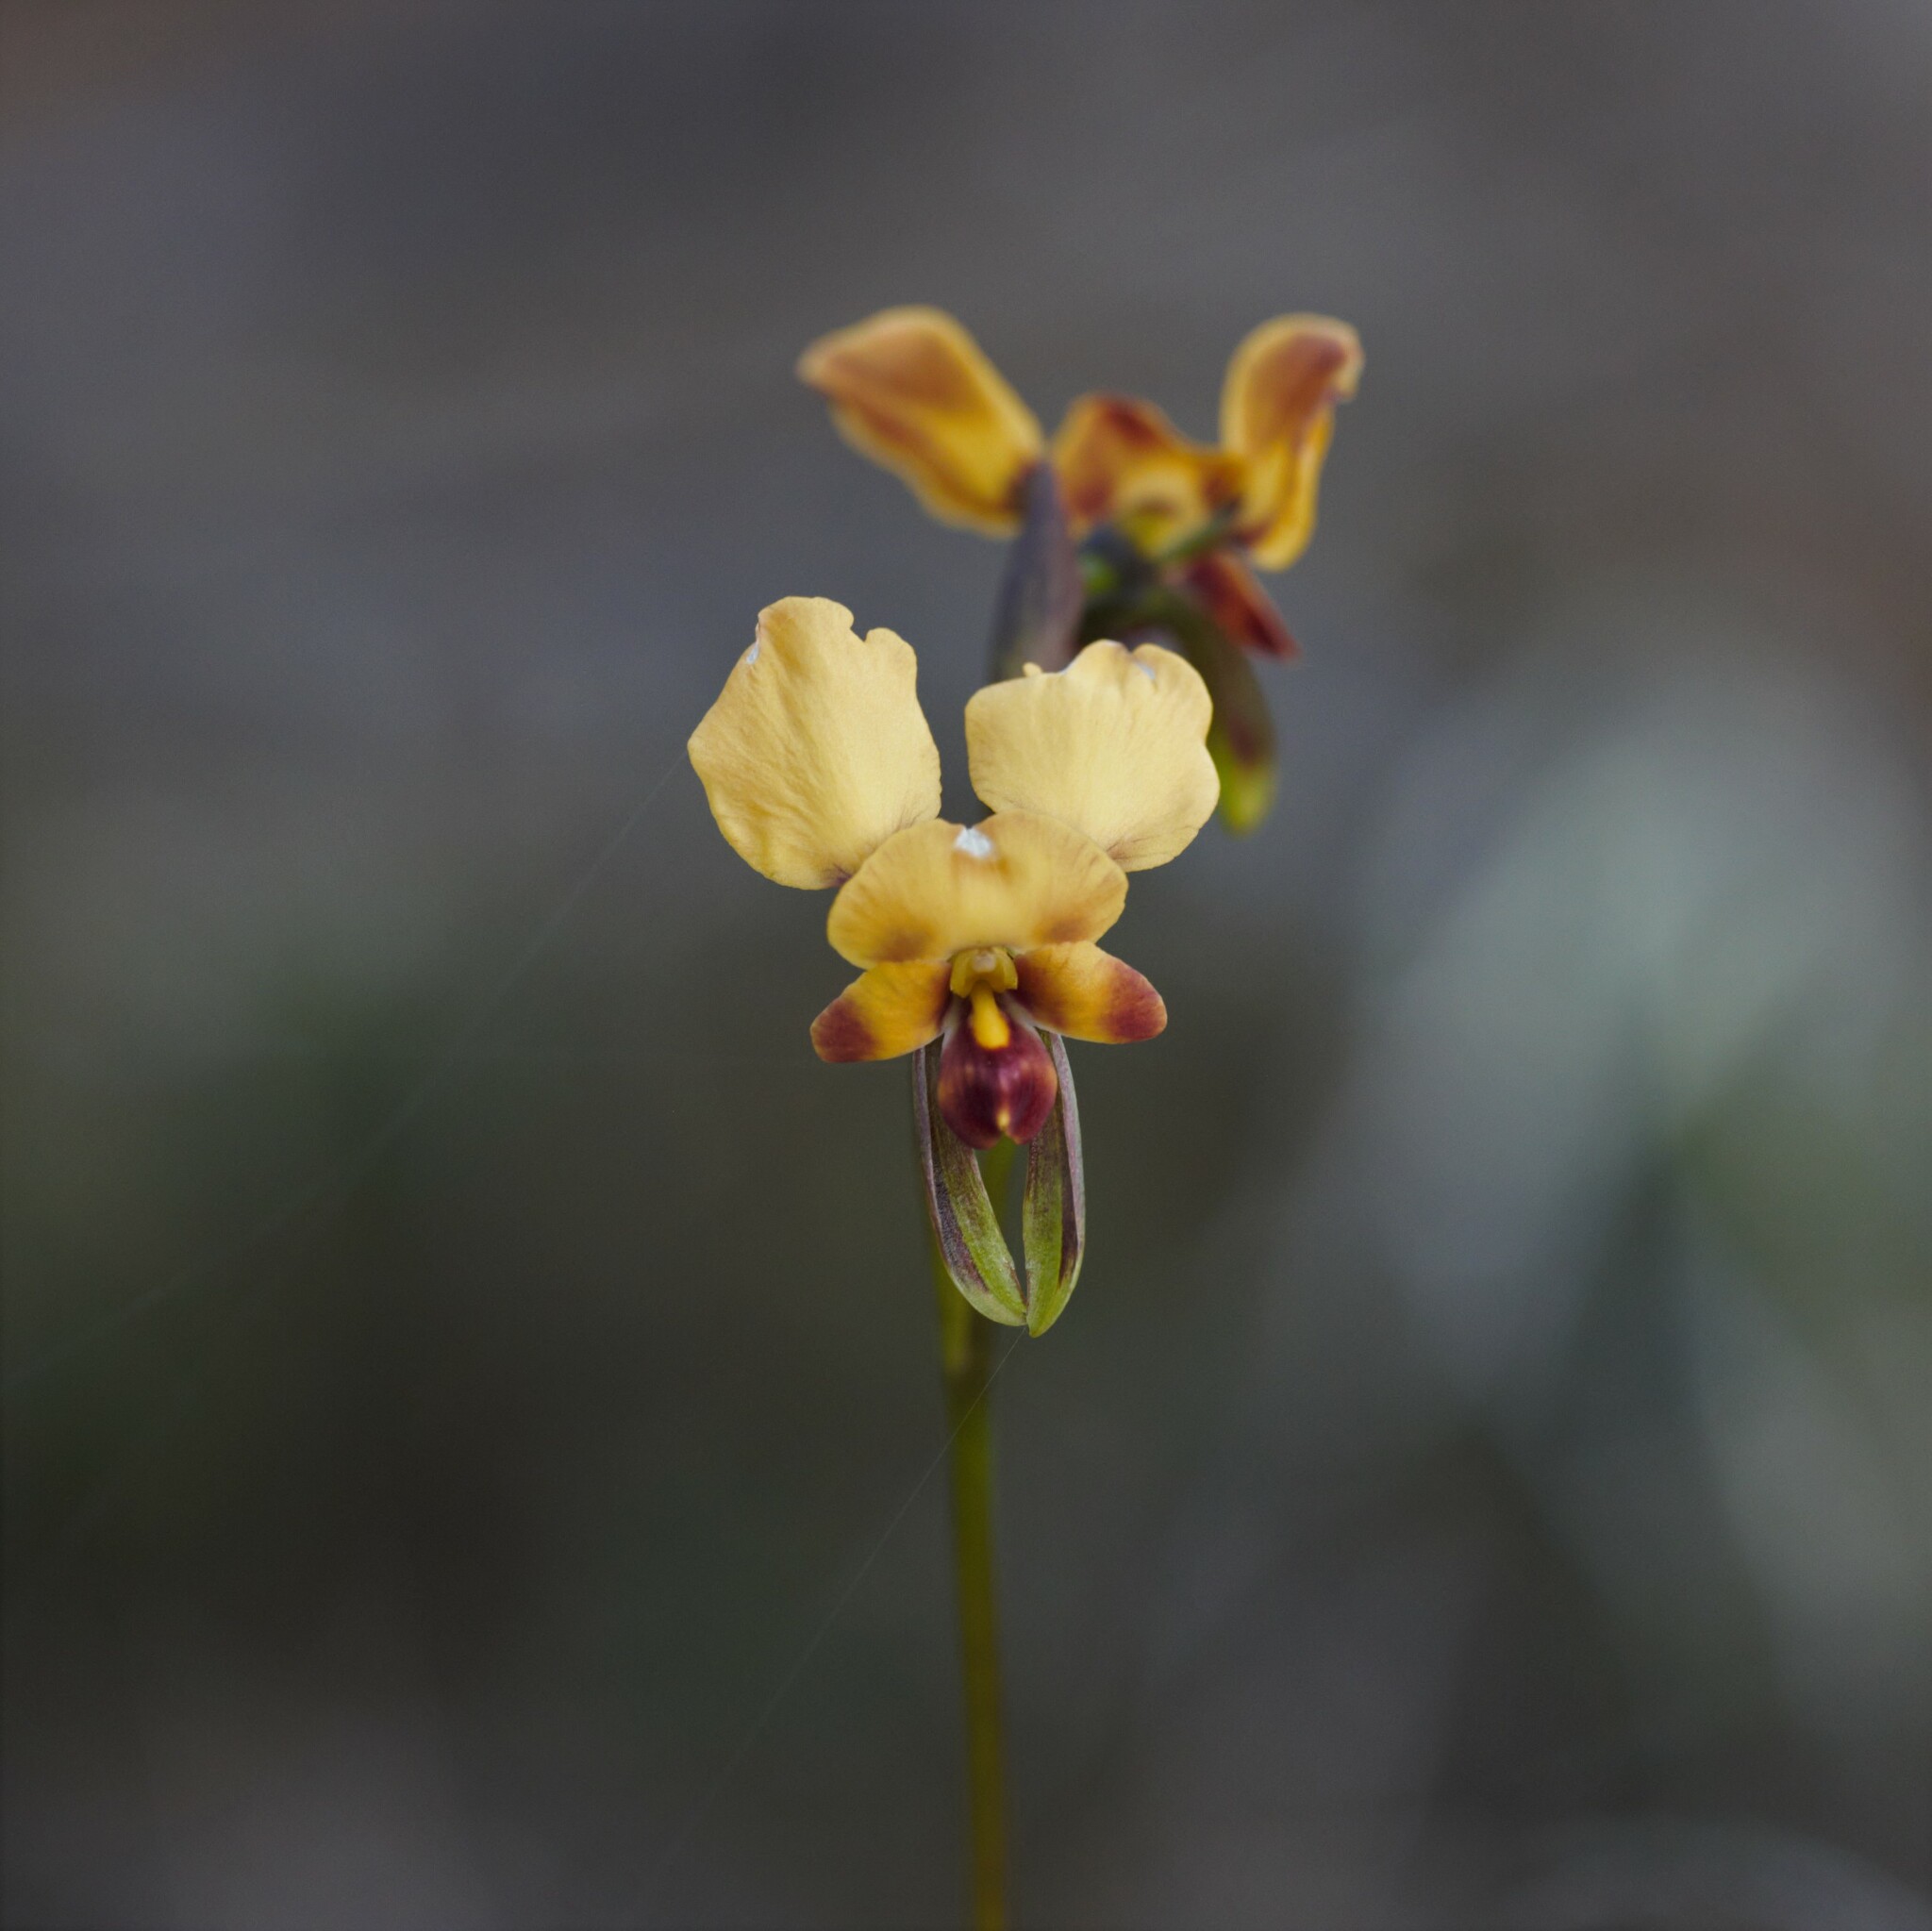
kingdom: Plantae
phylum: Tracheophyta
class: Liliopsida
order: Asparagales
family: Orchidaceae
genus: Diuris
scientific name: Diuris brockmanii
